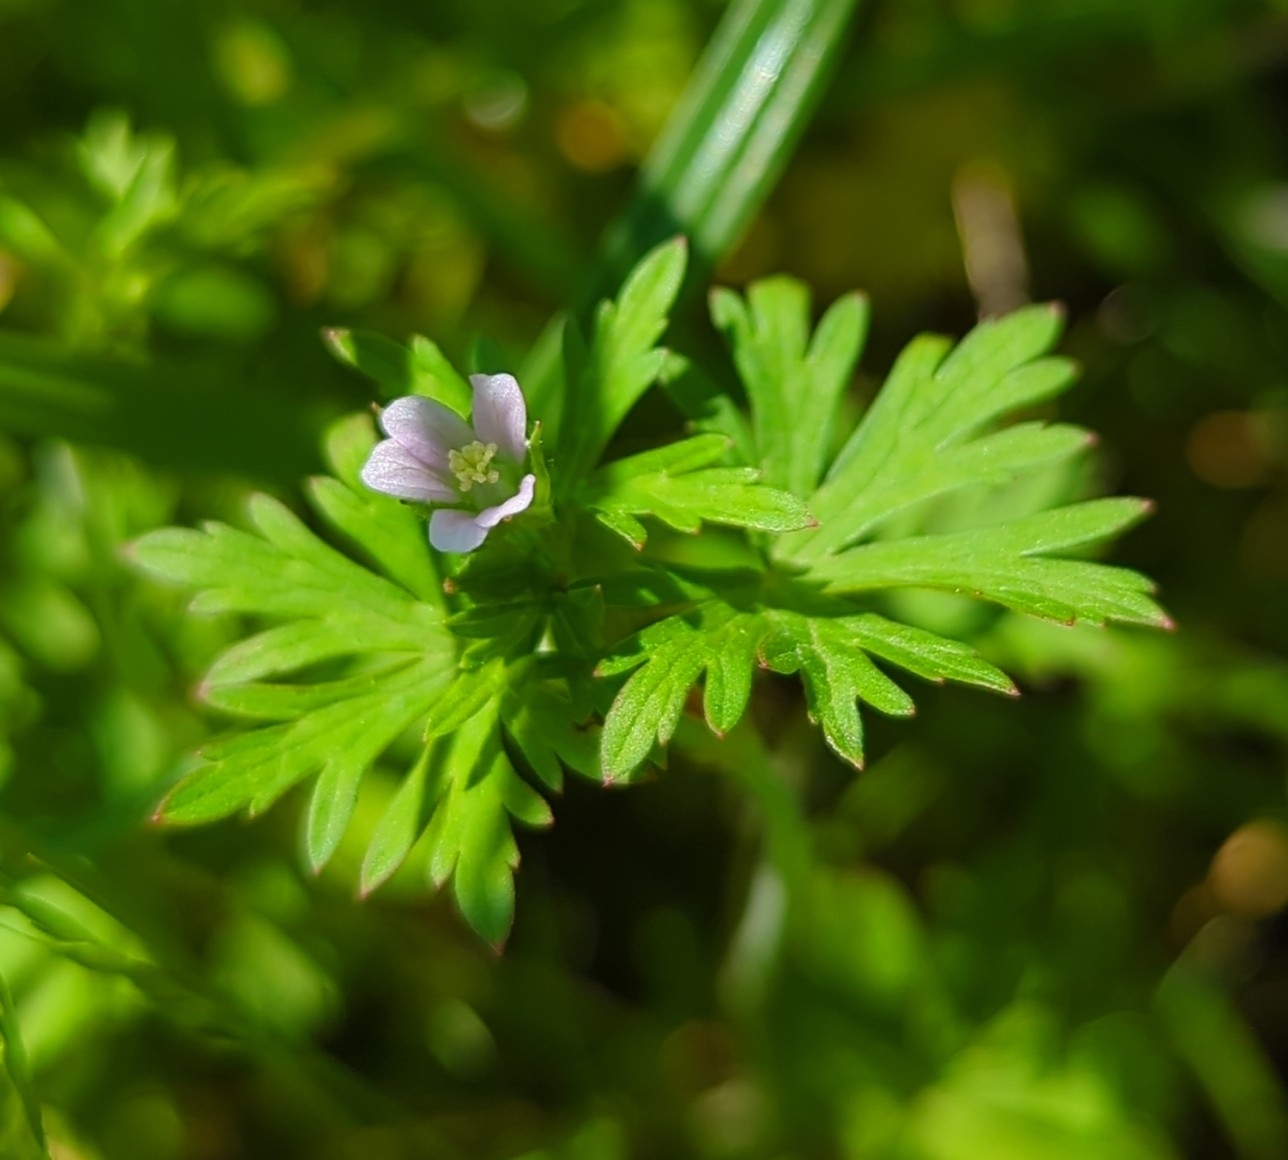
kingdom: Plantae
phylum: Tracheophyta
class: Magnoliopsida
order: Geraniales
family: Geraniaceae
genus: Geranium
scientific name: Geranium carolinianum
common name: Carolina crane's-bill
